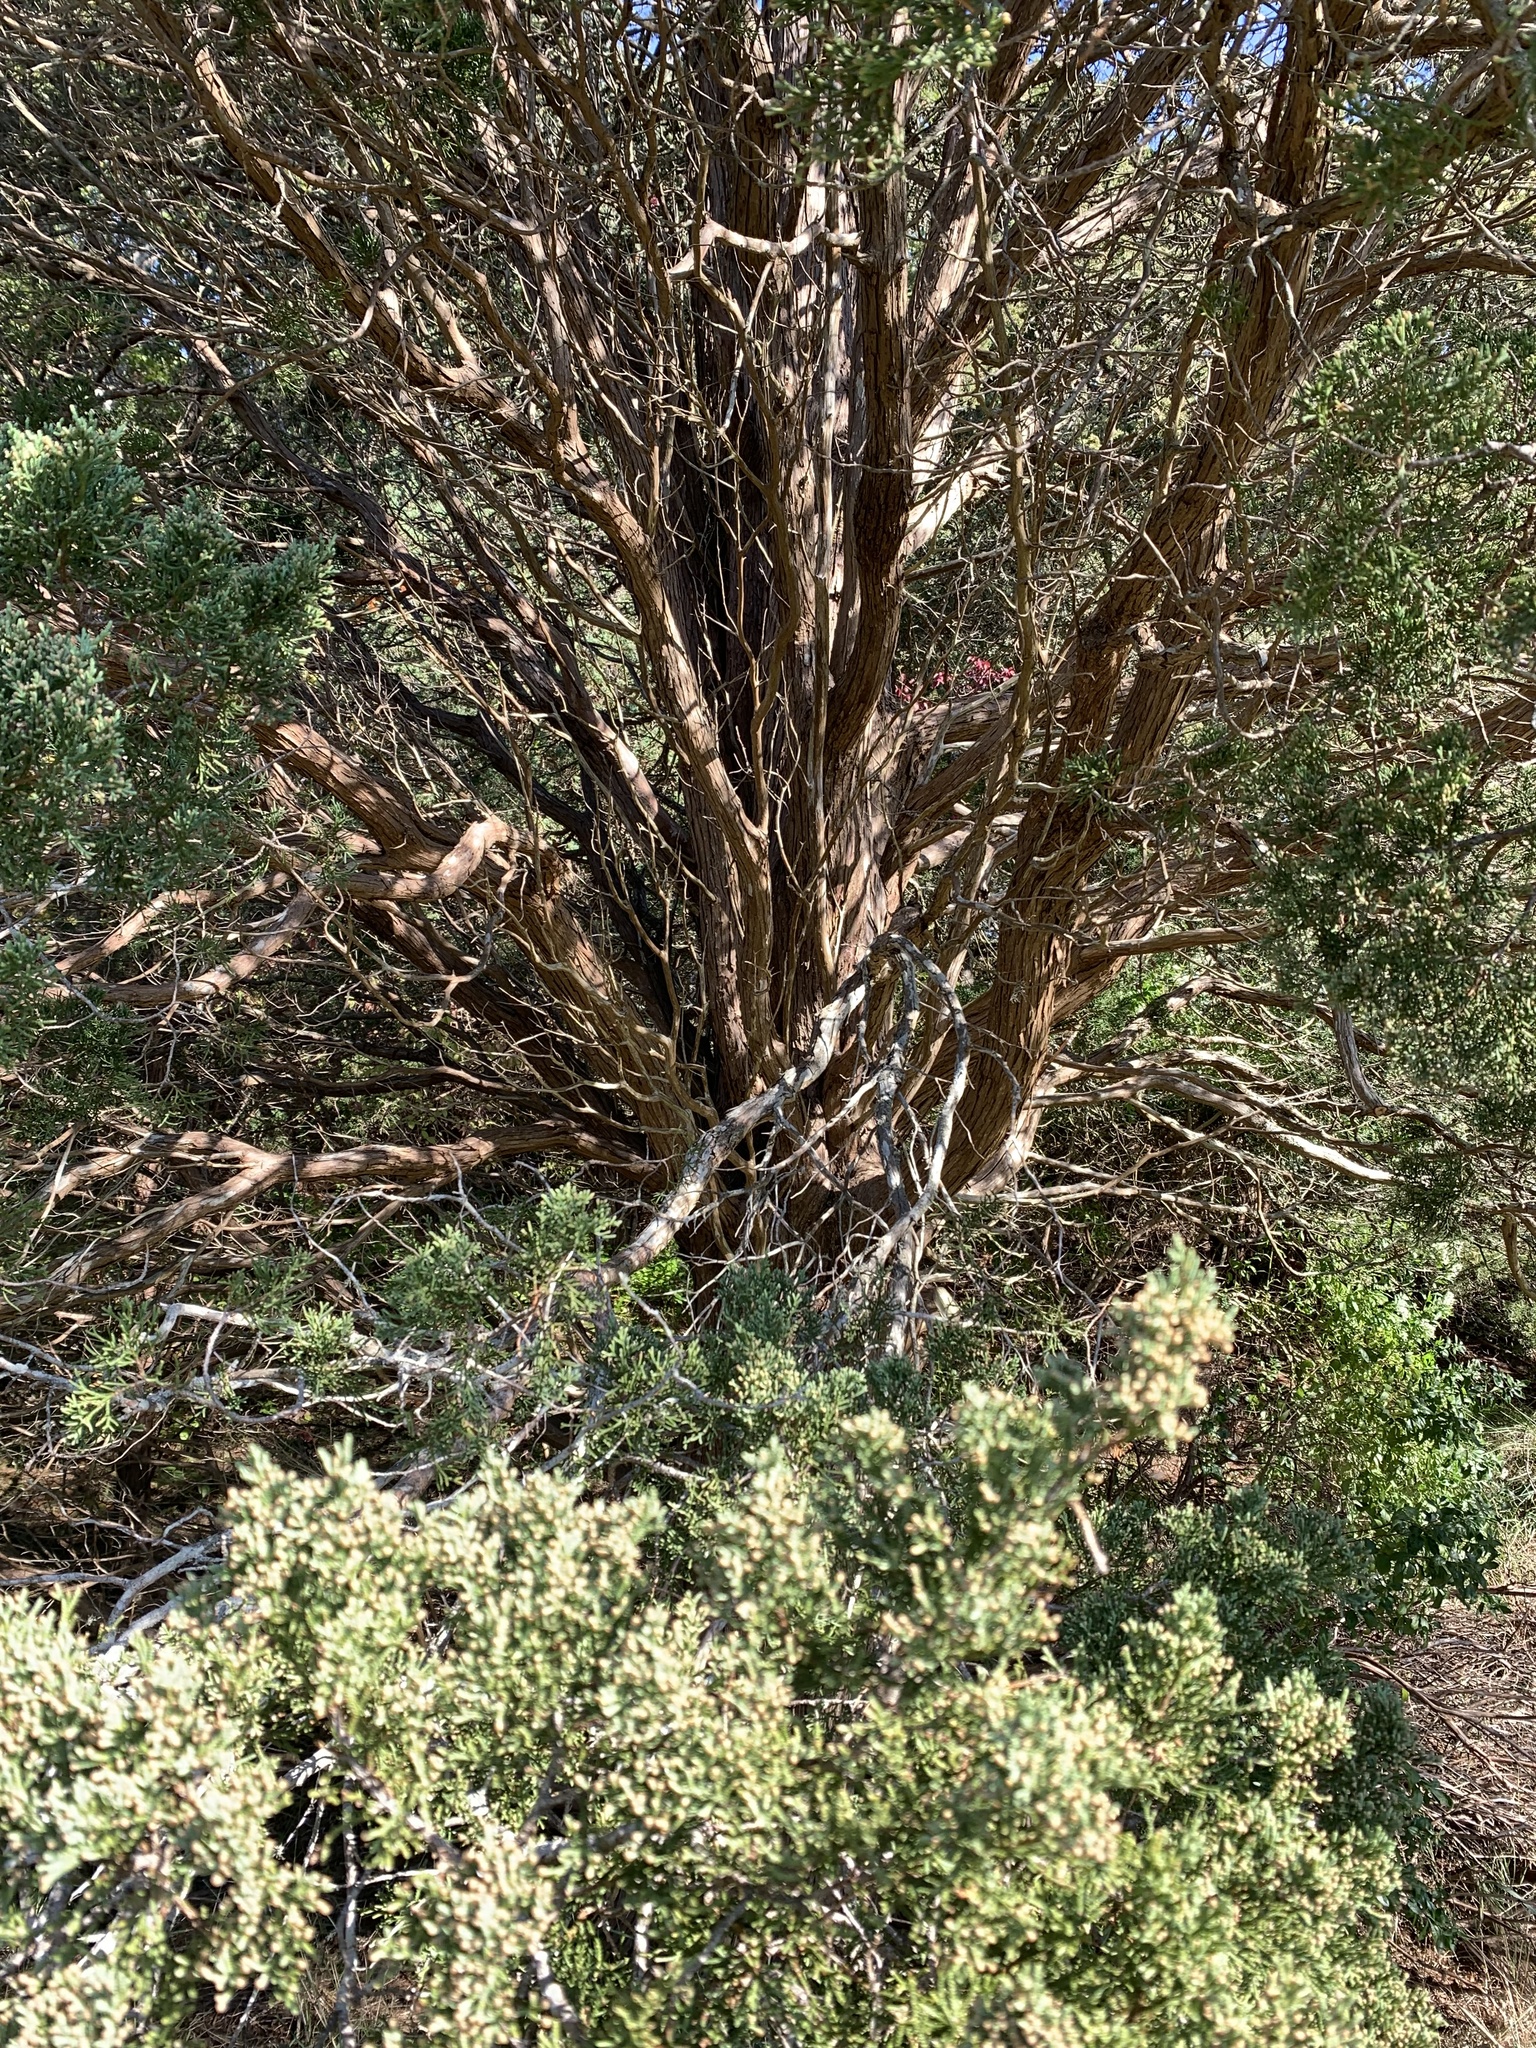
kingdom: Plantae
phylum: Tracheophyta
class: Pinopsida
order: Pinales
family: Cupressaceae
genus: Juniperus
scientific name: Juniperus virginiana
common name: Red juniper
